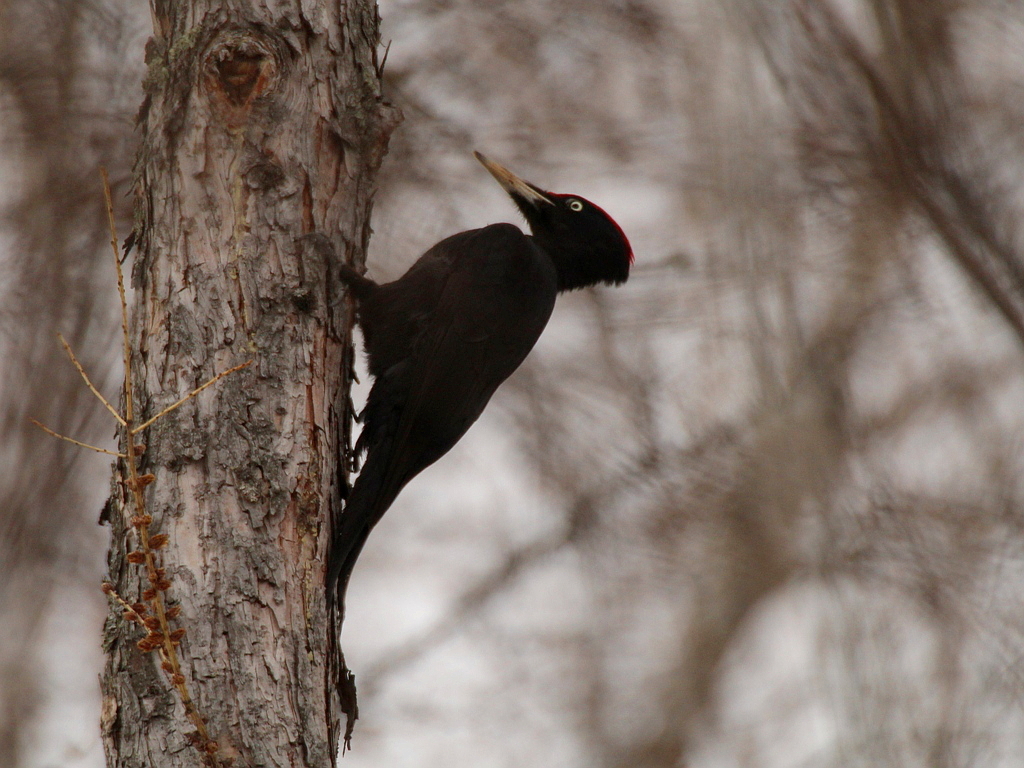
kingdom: Animalia
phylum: Chordata
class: Aves
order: Piciformes
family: Picidae
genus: Dryocopus
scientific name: Dryocopus martius
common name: Black woodpecker
